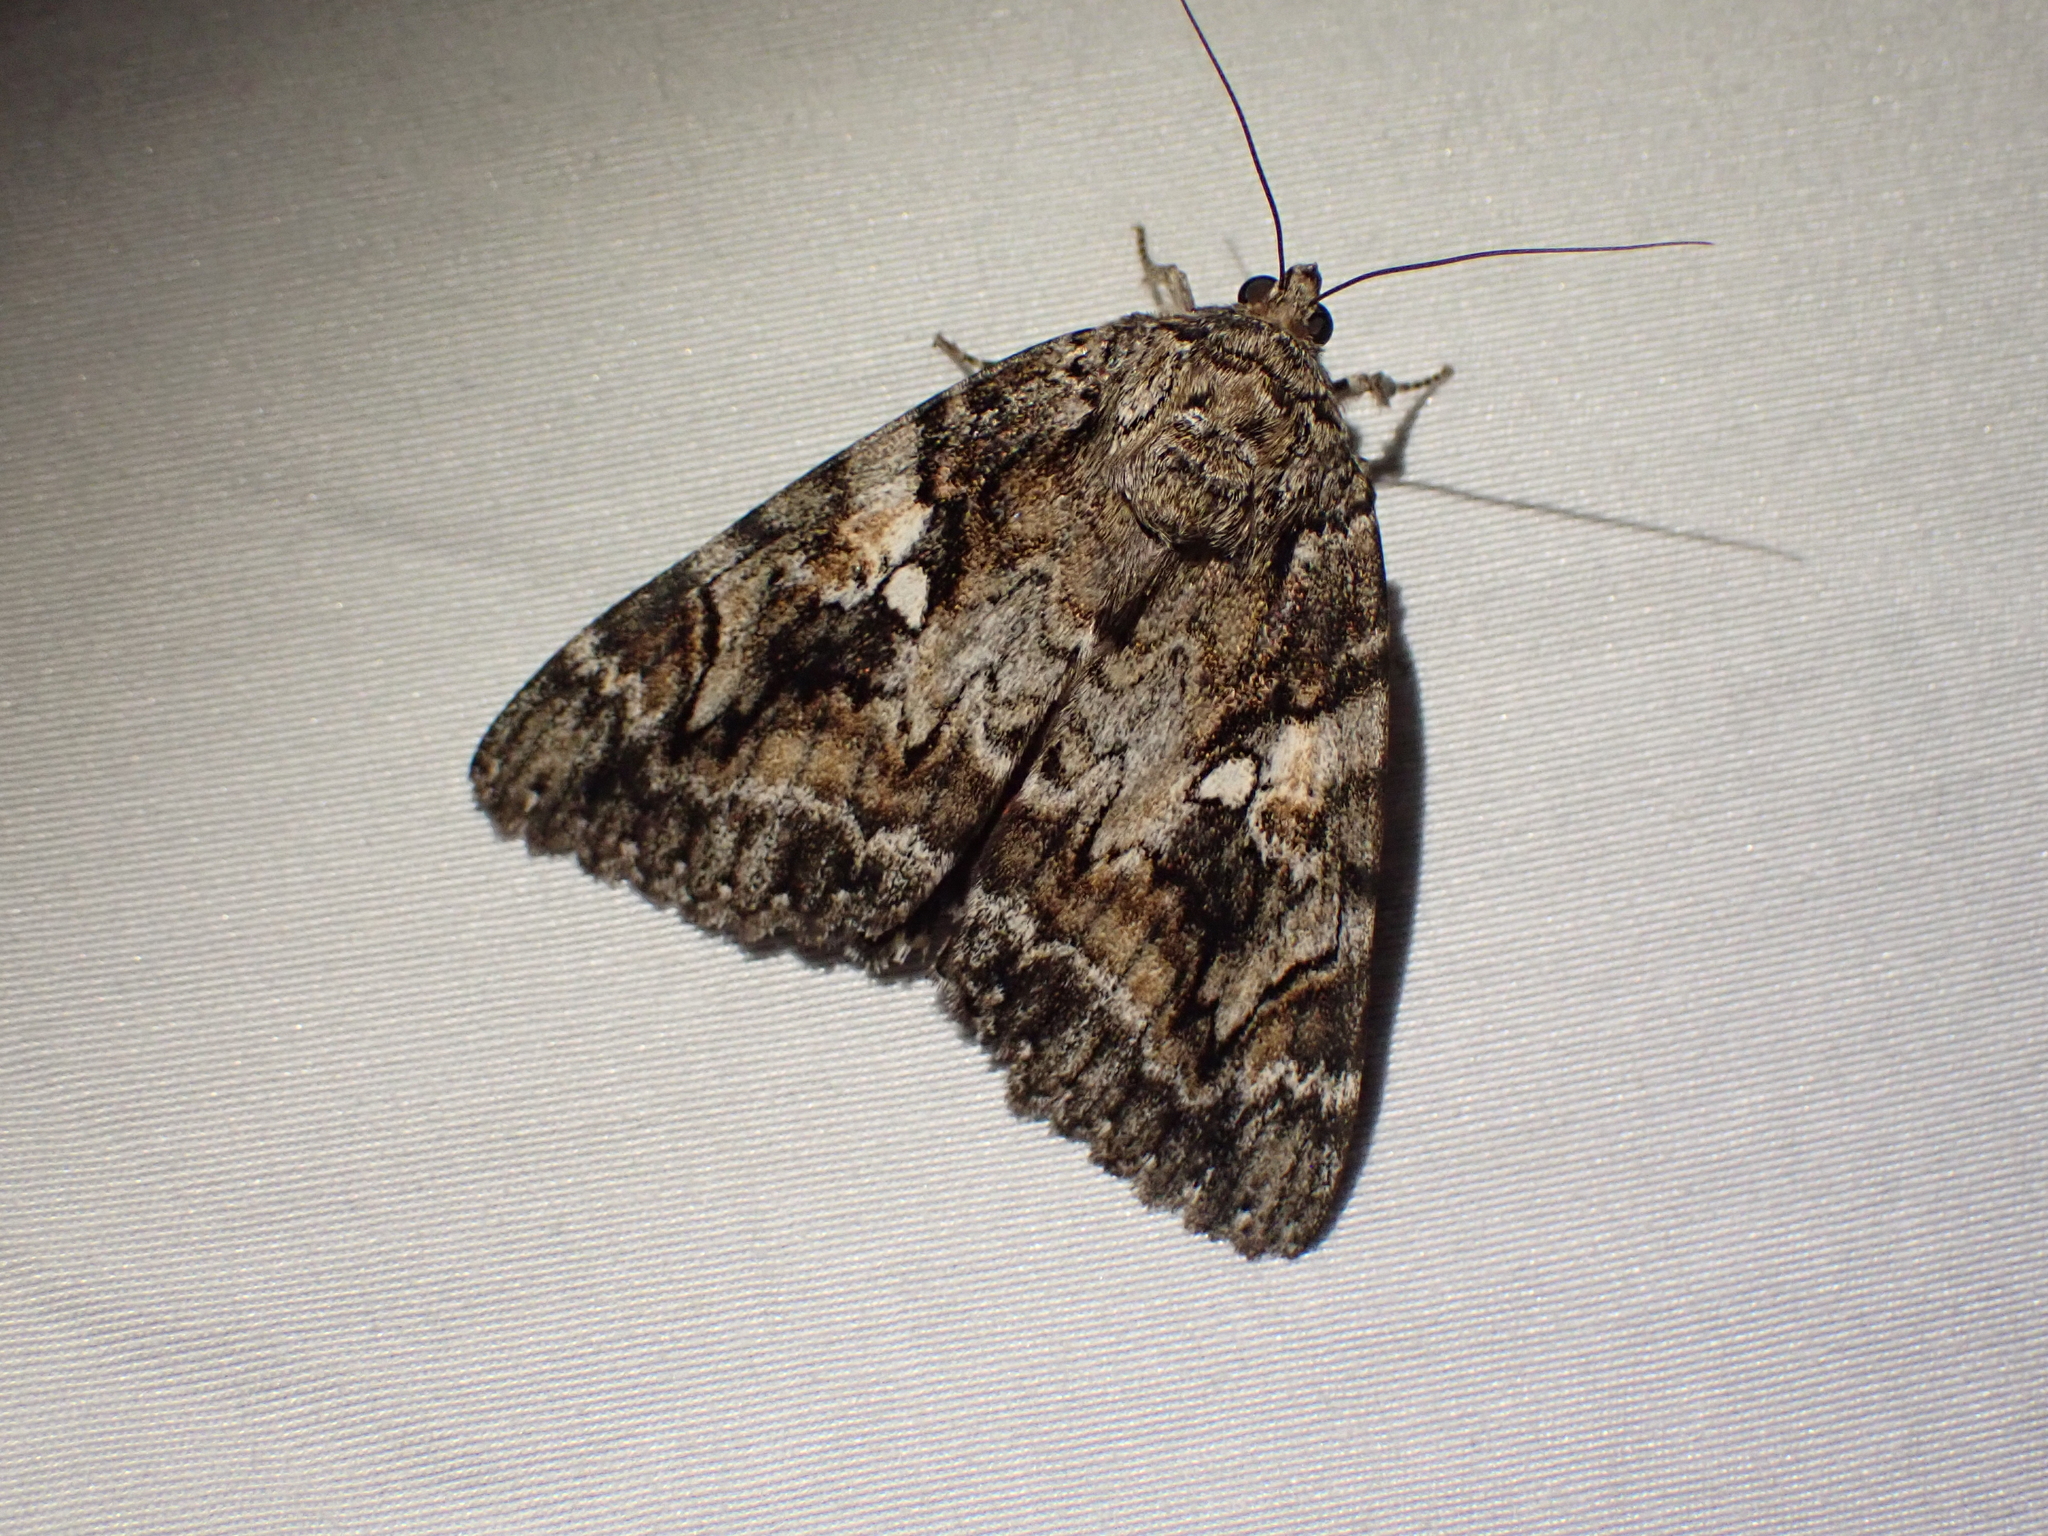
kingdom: Animalia
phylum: Arthropoda
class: Insecta
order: Lepidoptera
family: Erebidae
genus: Catocala
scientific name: Catocala aholibah
